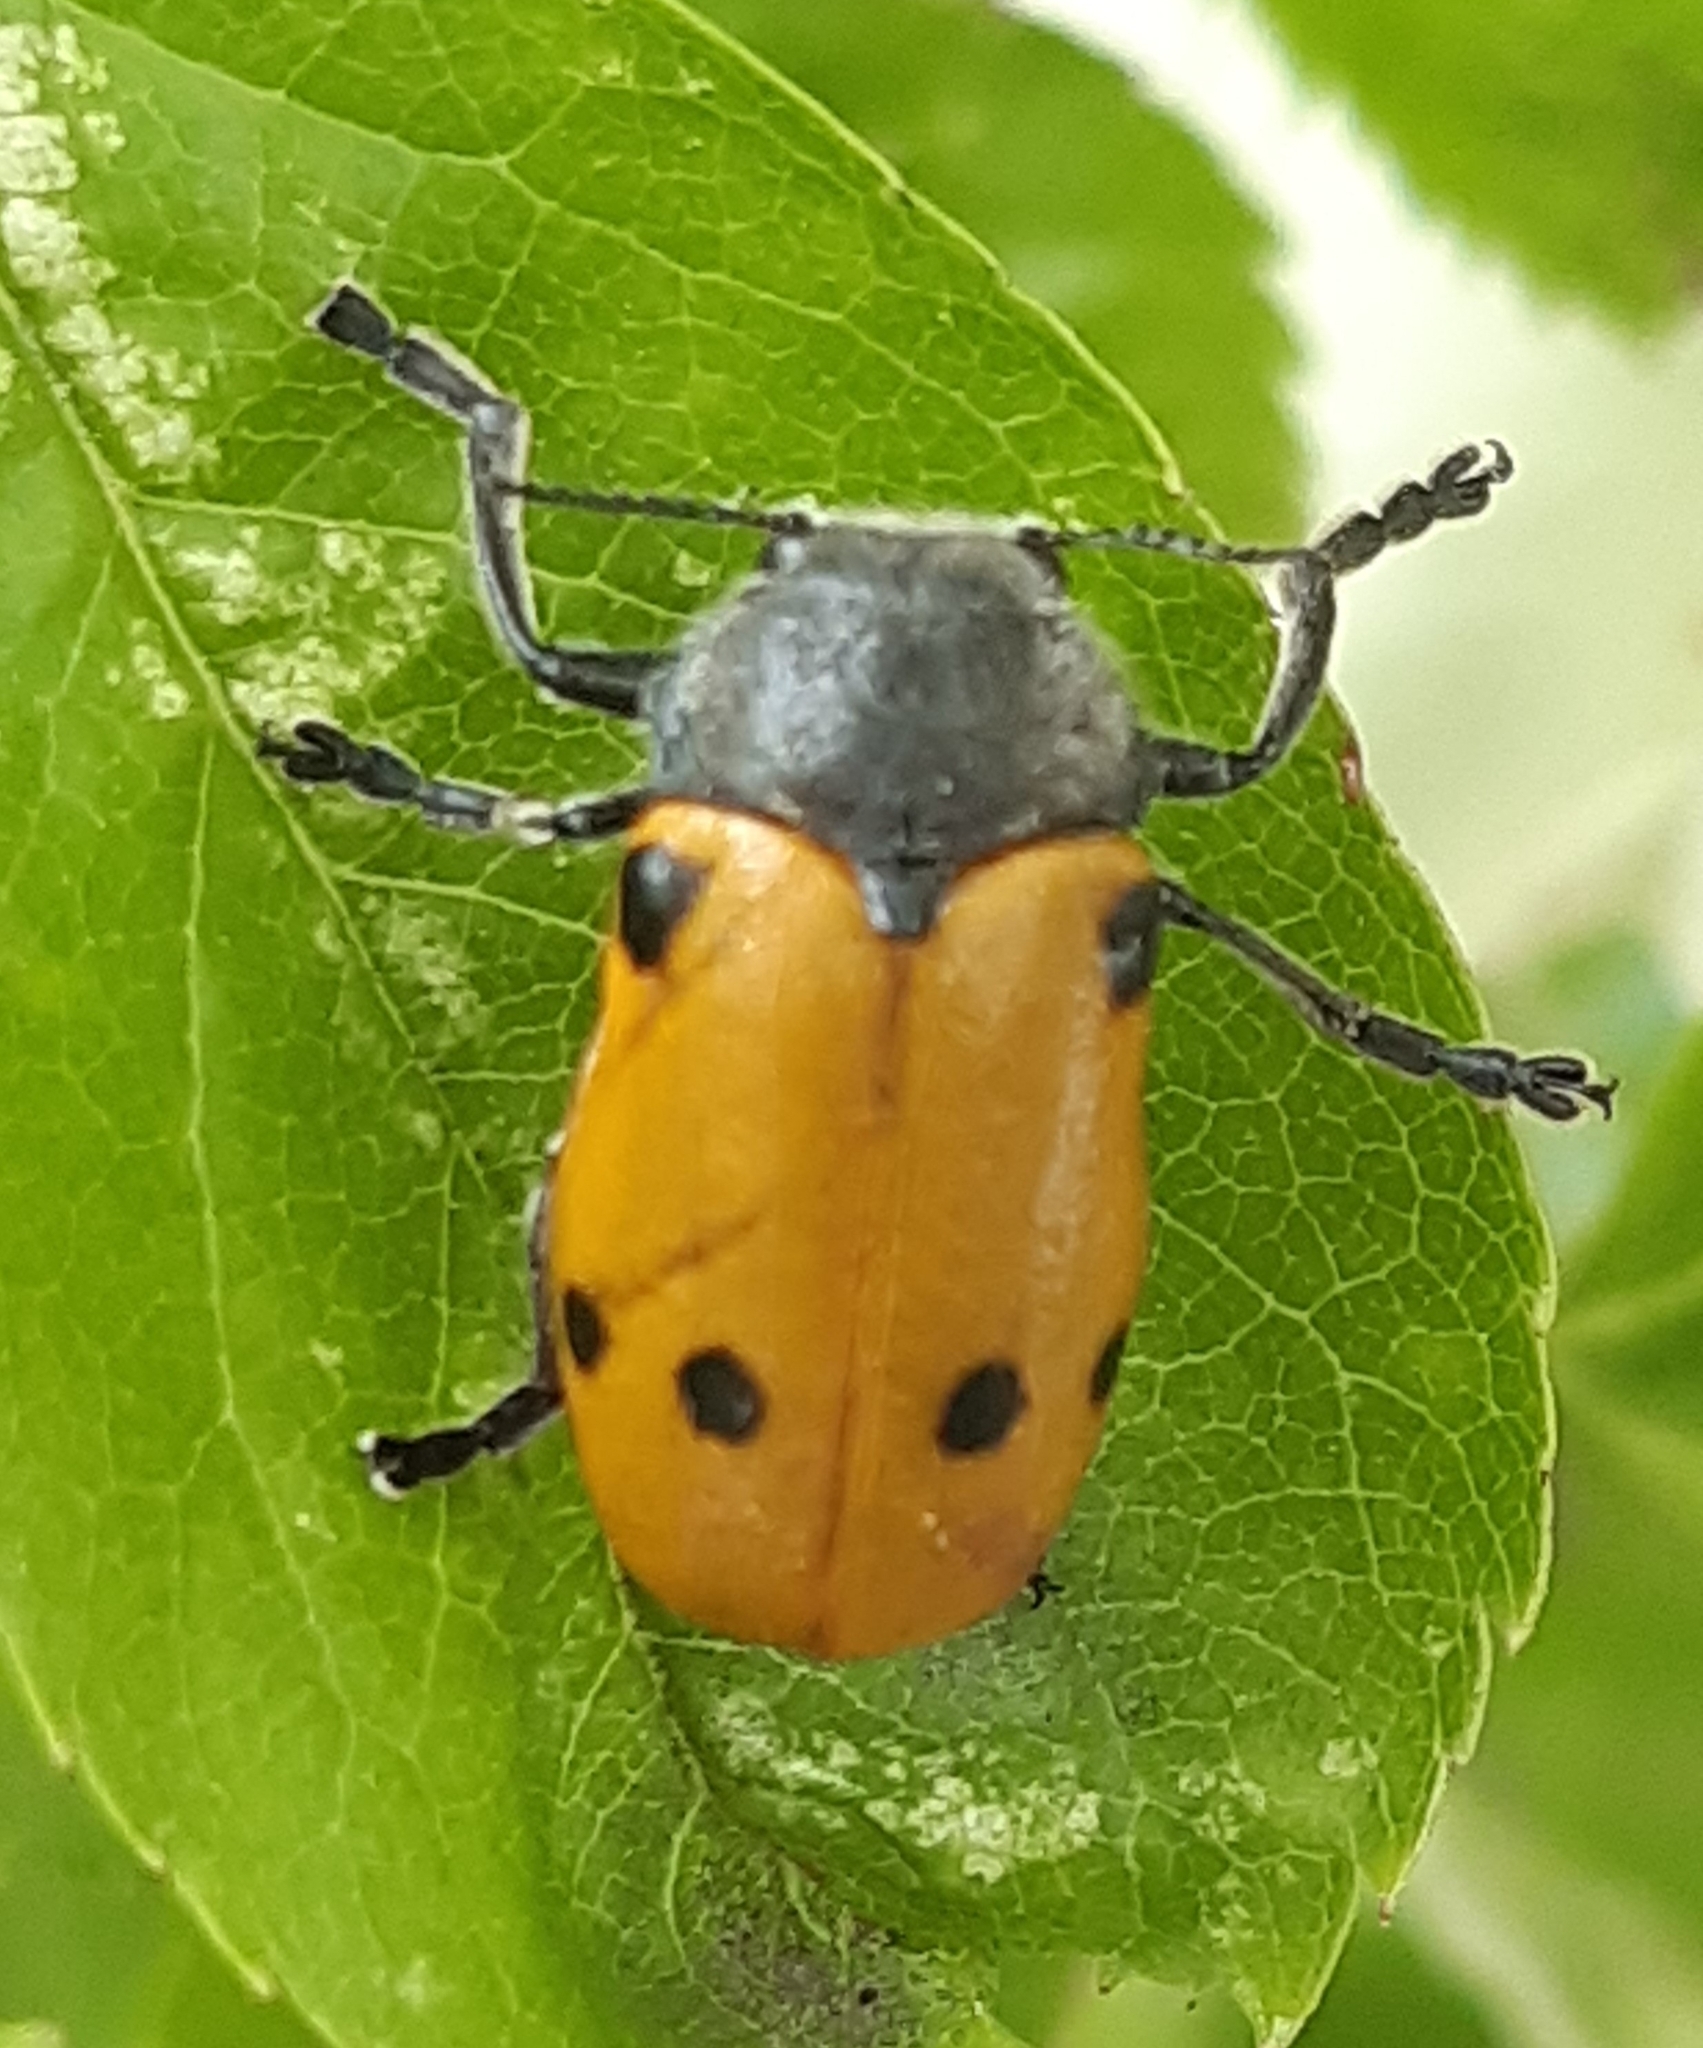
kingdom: Animalia
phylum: Arthropoda
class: Insecta
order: Coleoptera
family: Chrysomelidae
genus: Lachnaia
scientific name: Lachnaia sexpunctata
